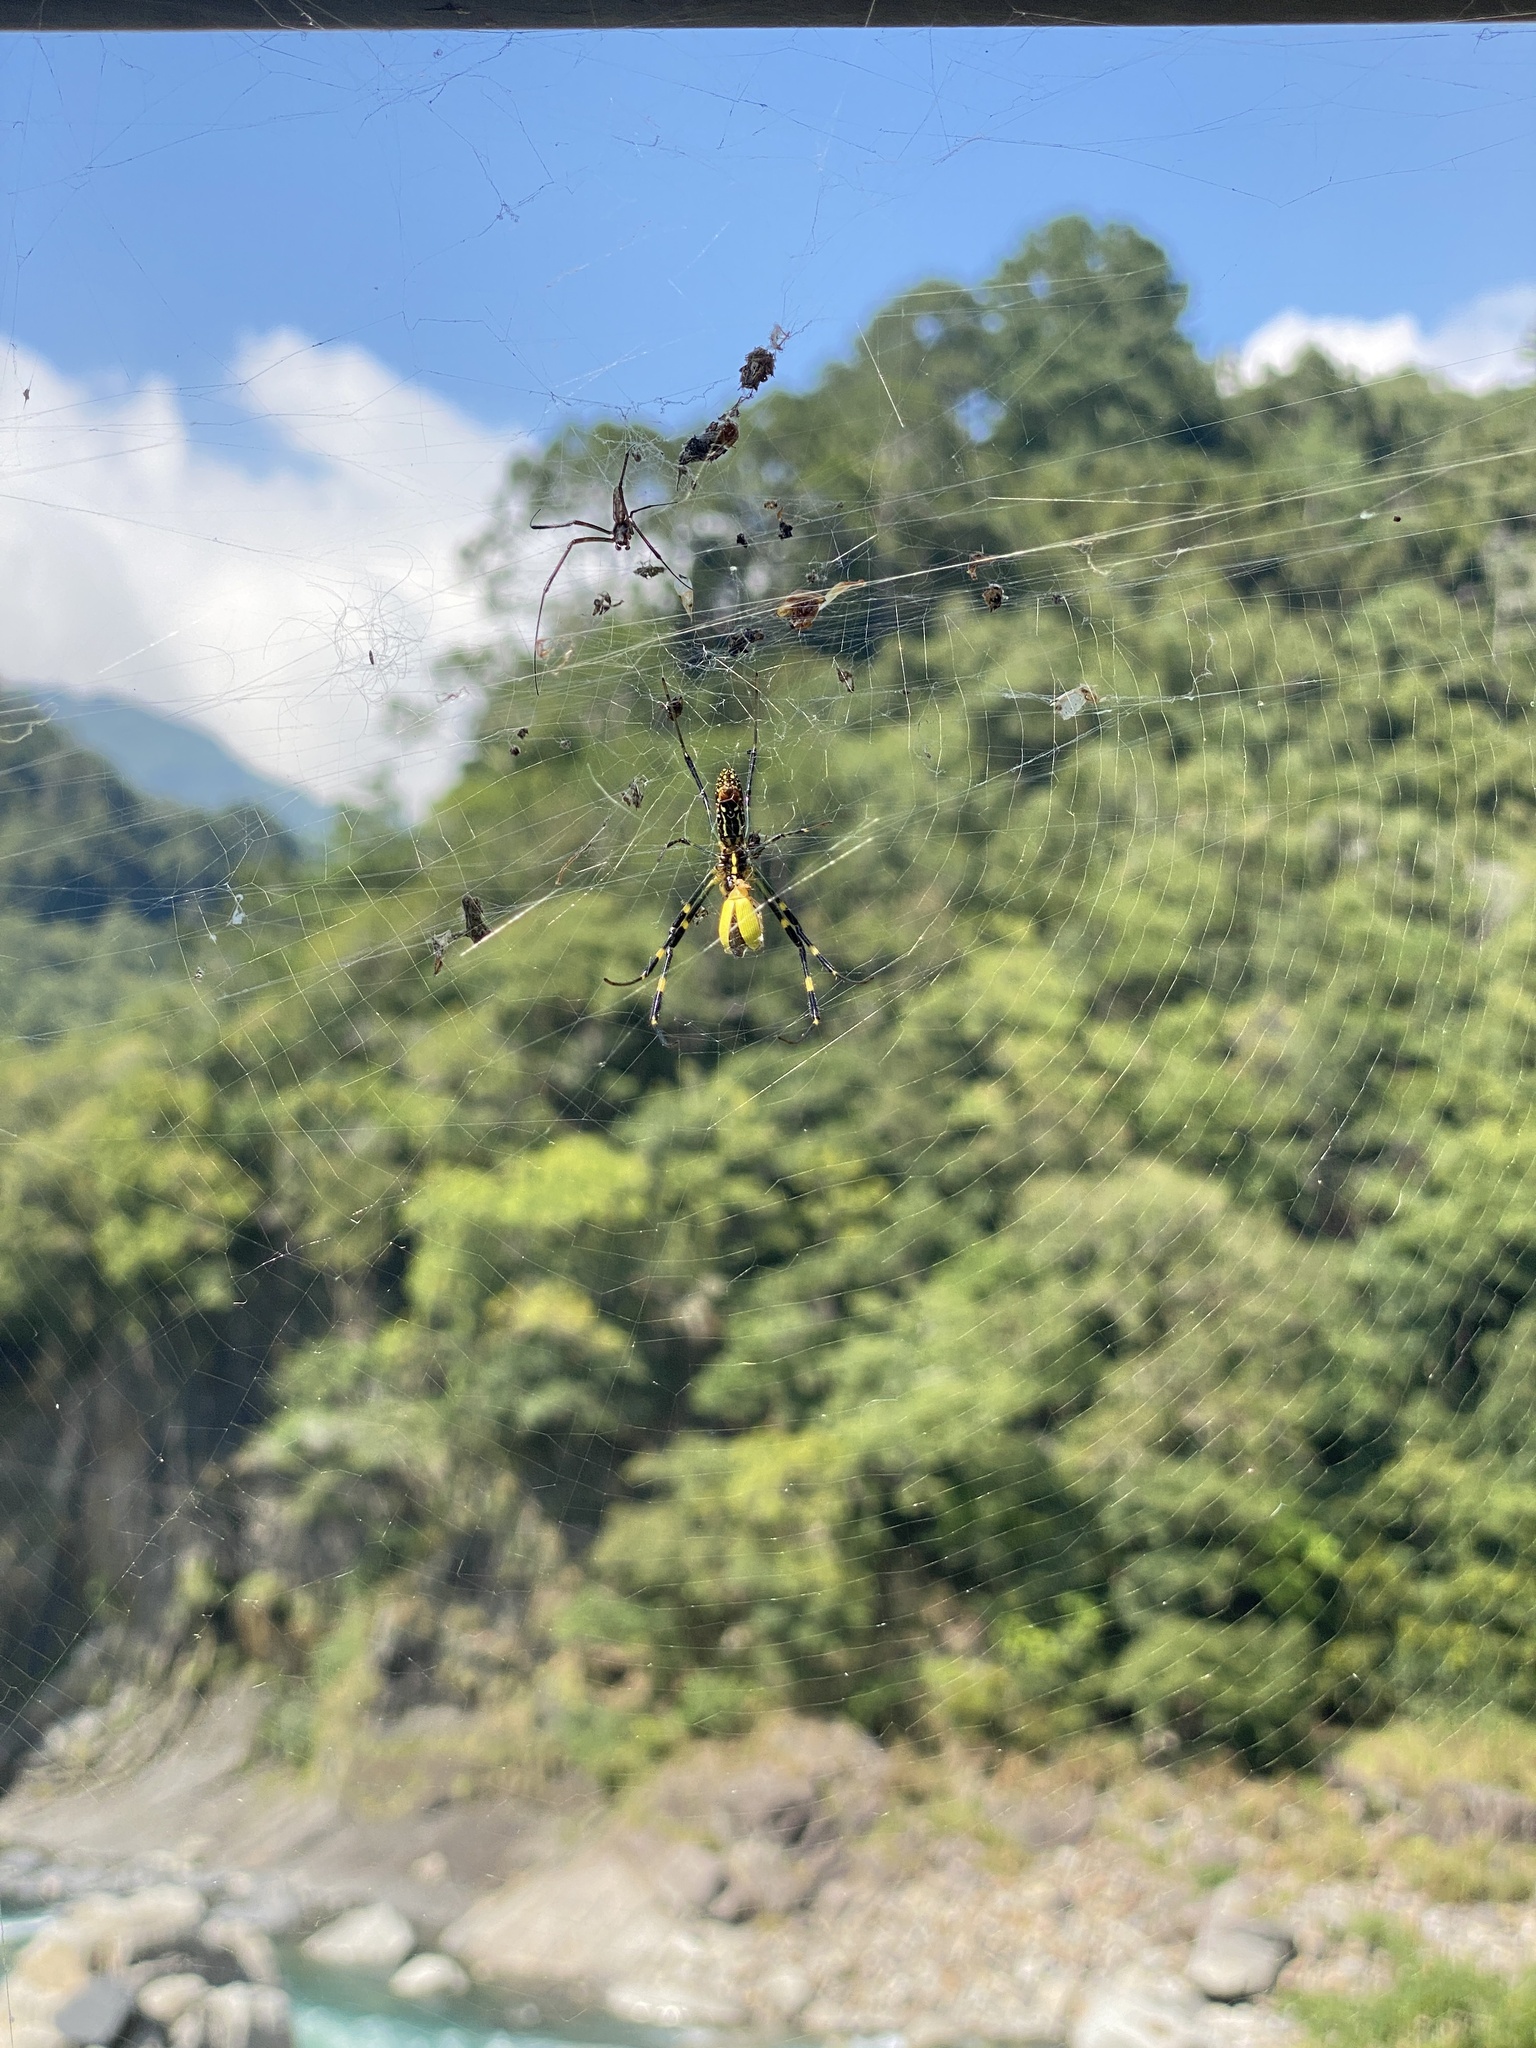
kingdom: Animalia
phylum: Arthropoda
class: Arachnida
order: Araneae
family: Araneidae
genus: Trichonephila
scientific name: Trichonephila clavata
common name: Jorō spider
